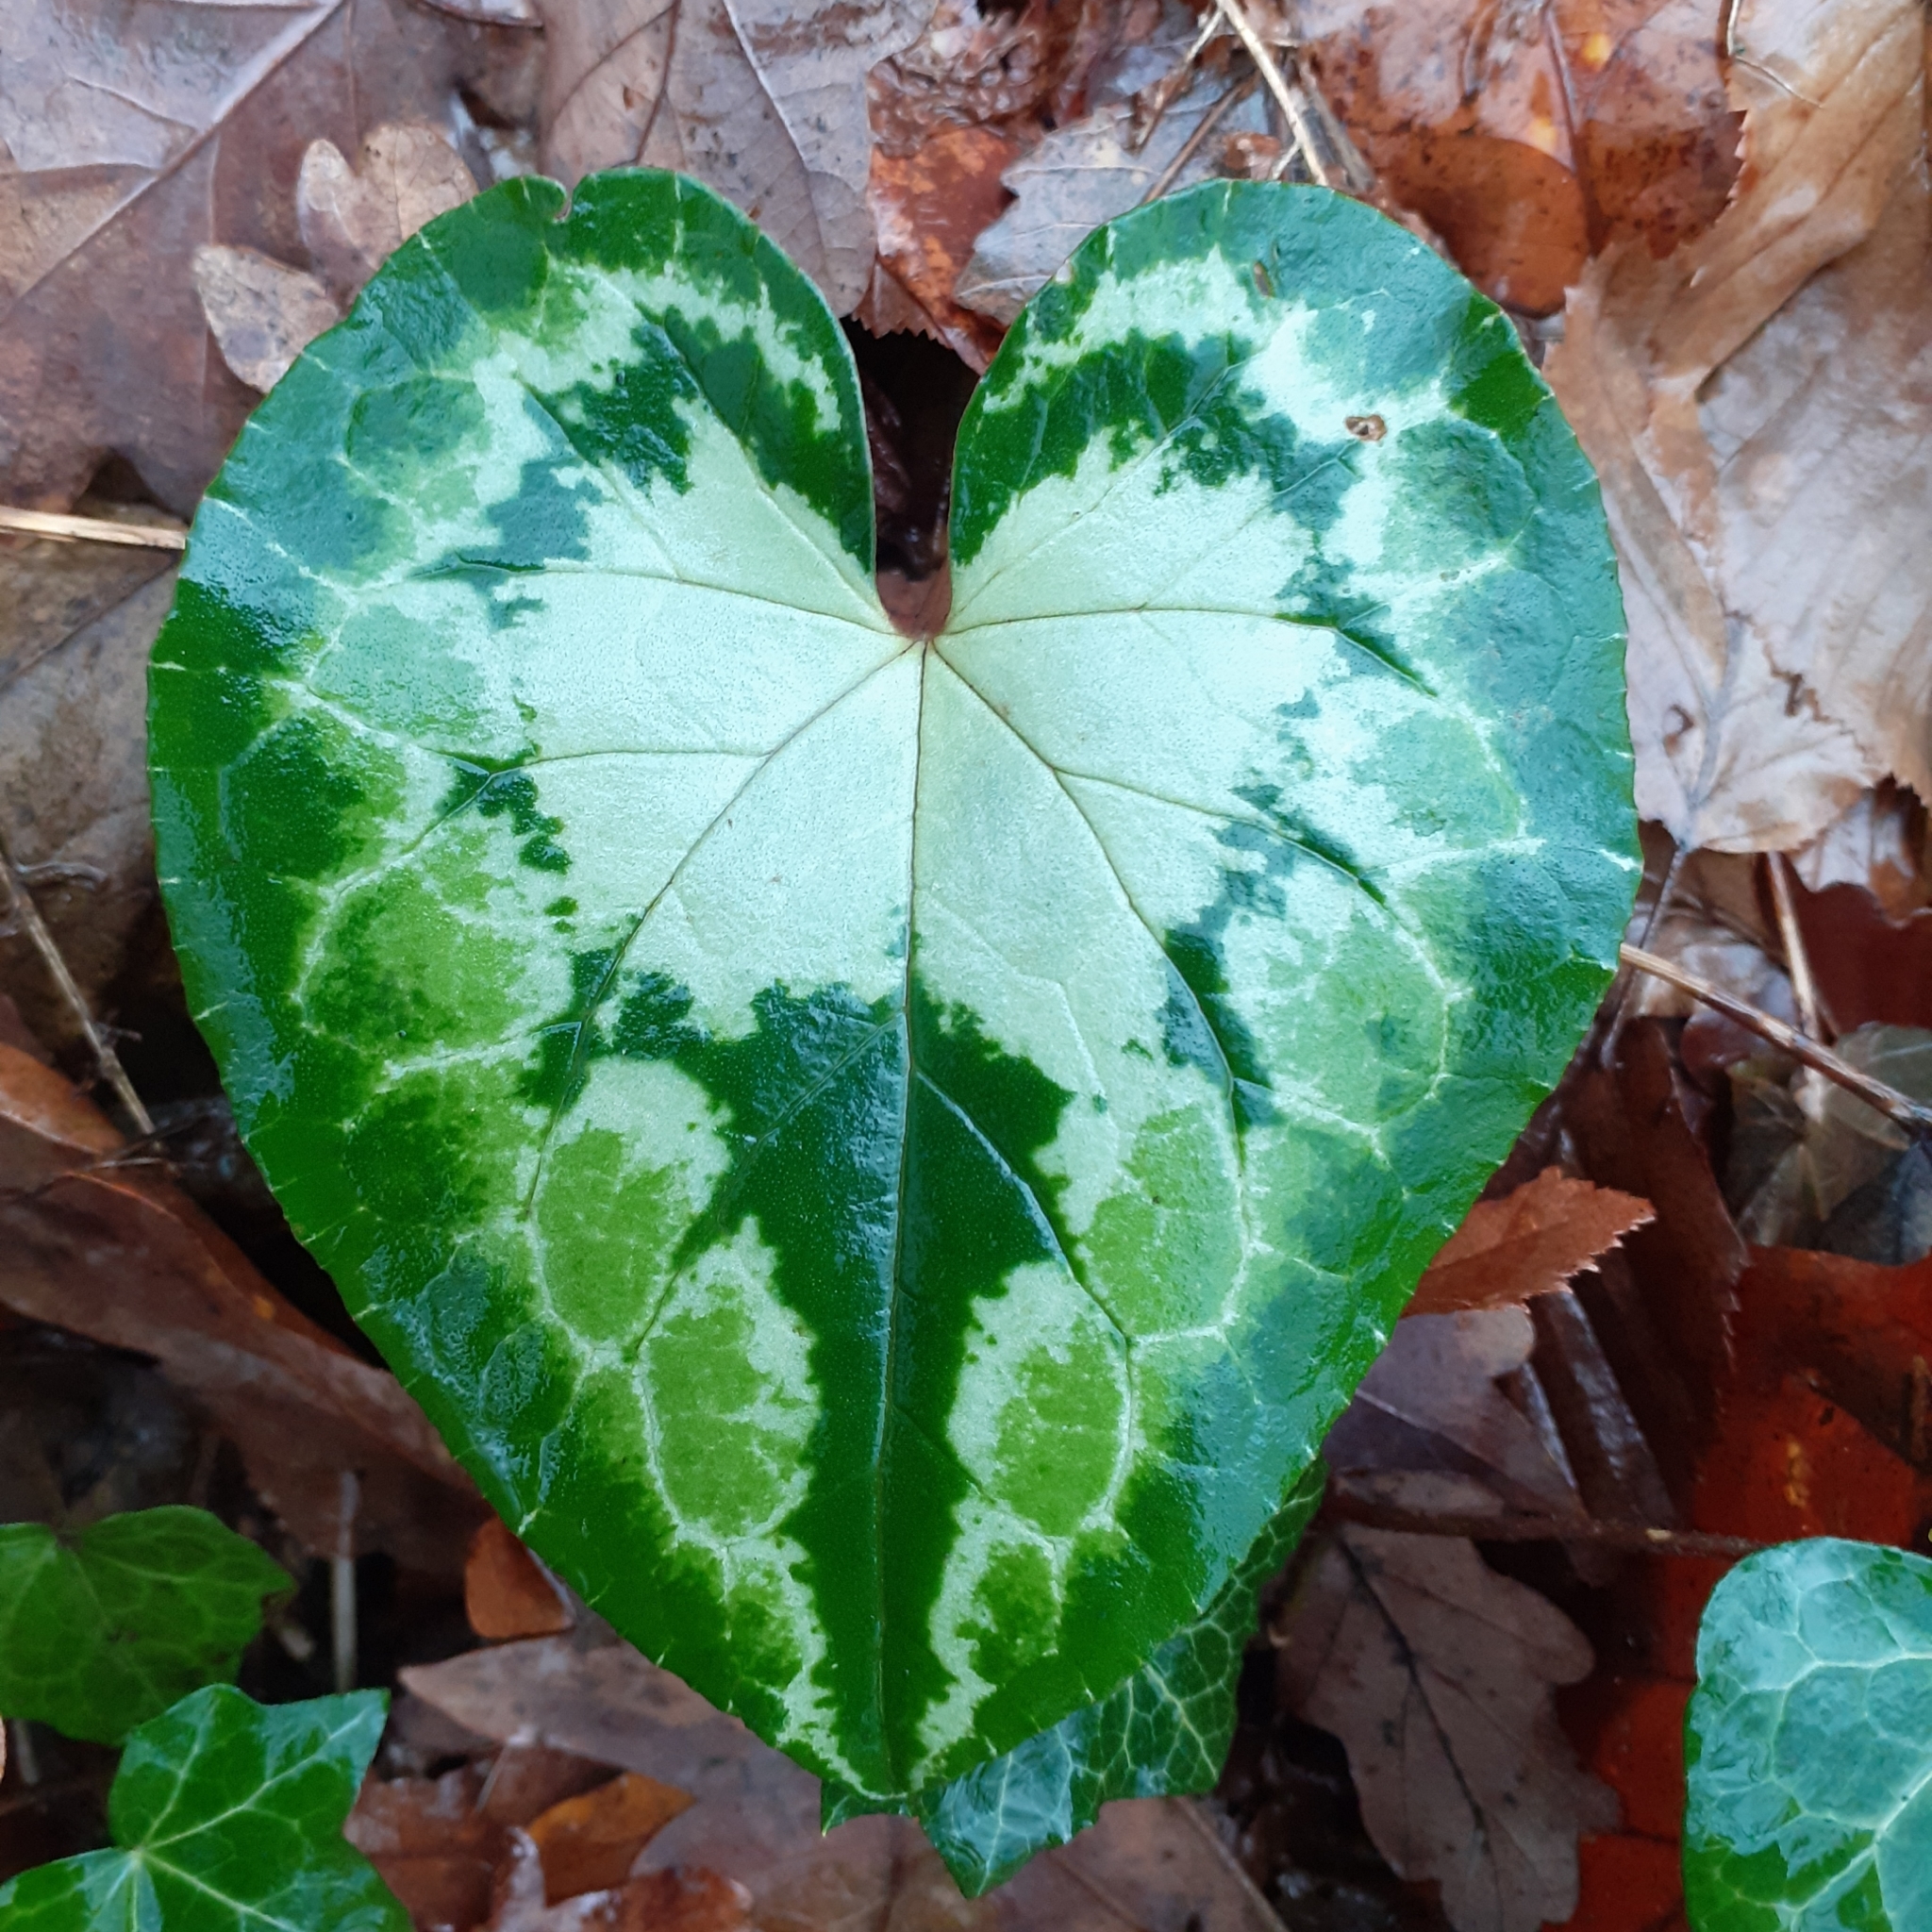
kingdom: Plantae
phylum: Tracheophyta
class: Magnoliopsida
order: Ericales
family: Primulaceae
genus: Cyclamen
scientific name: Cyclamen hederifolium
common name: Sowbread
